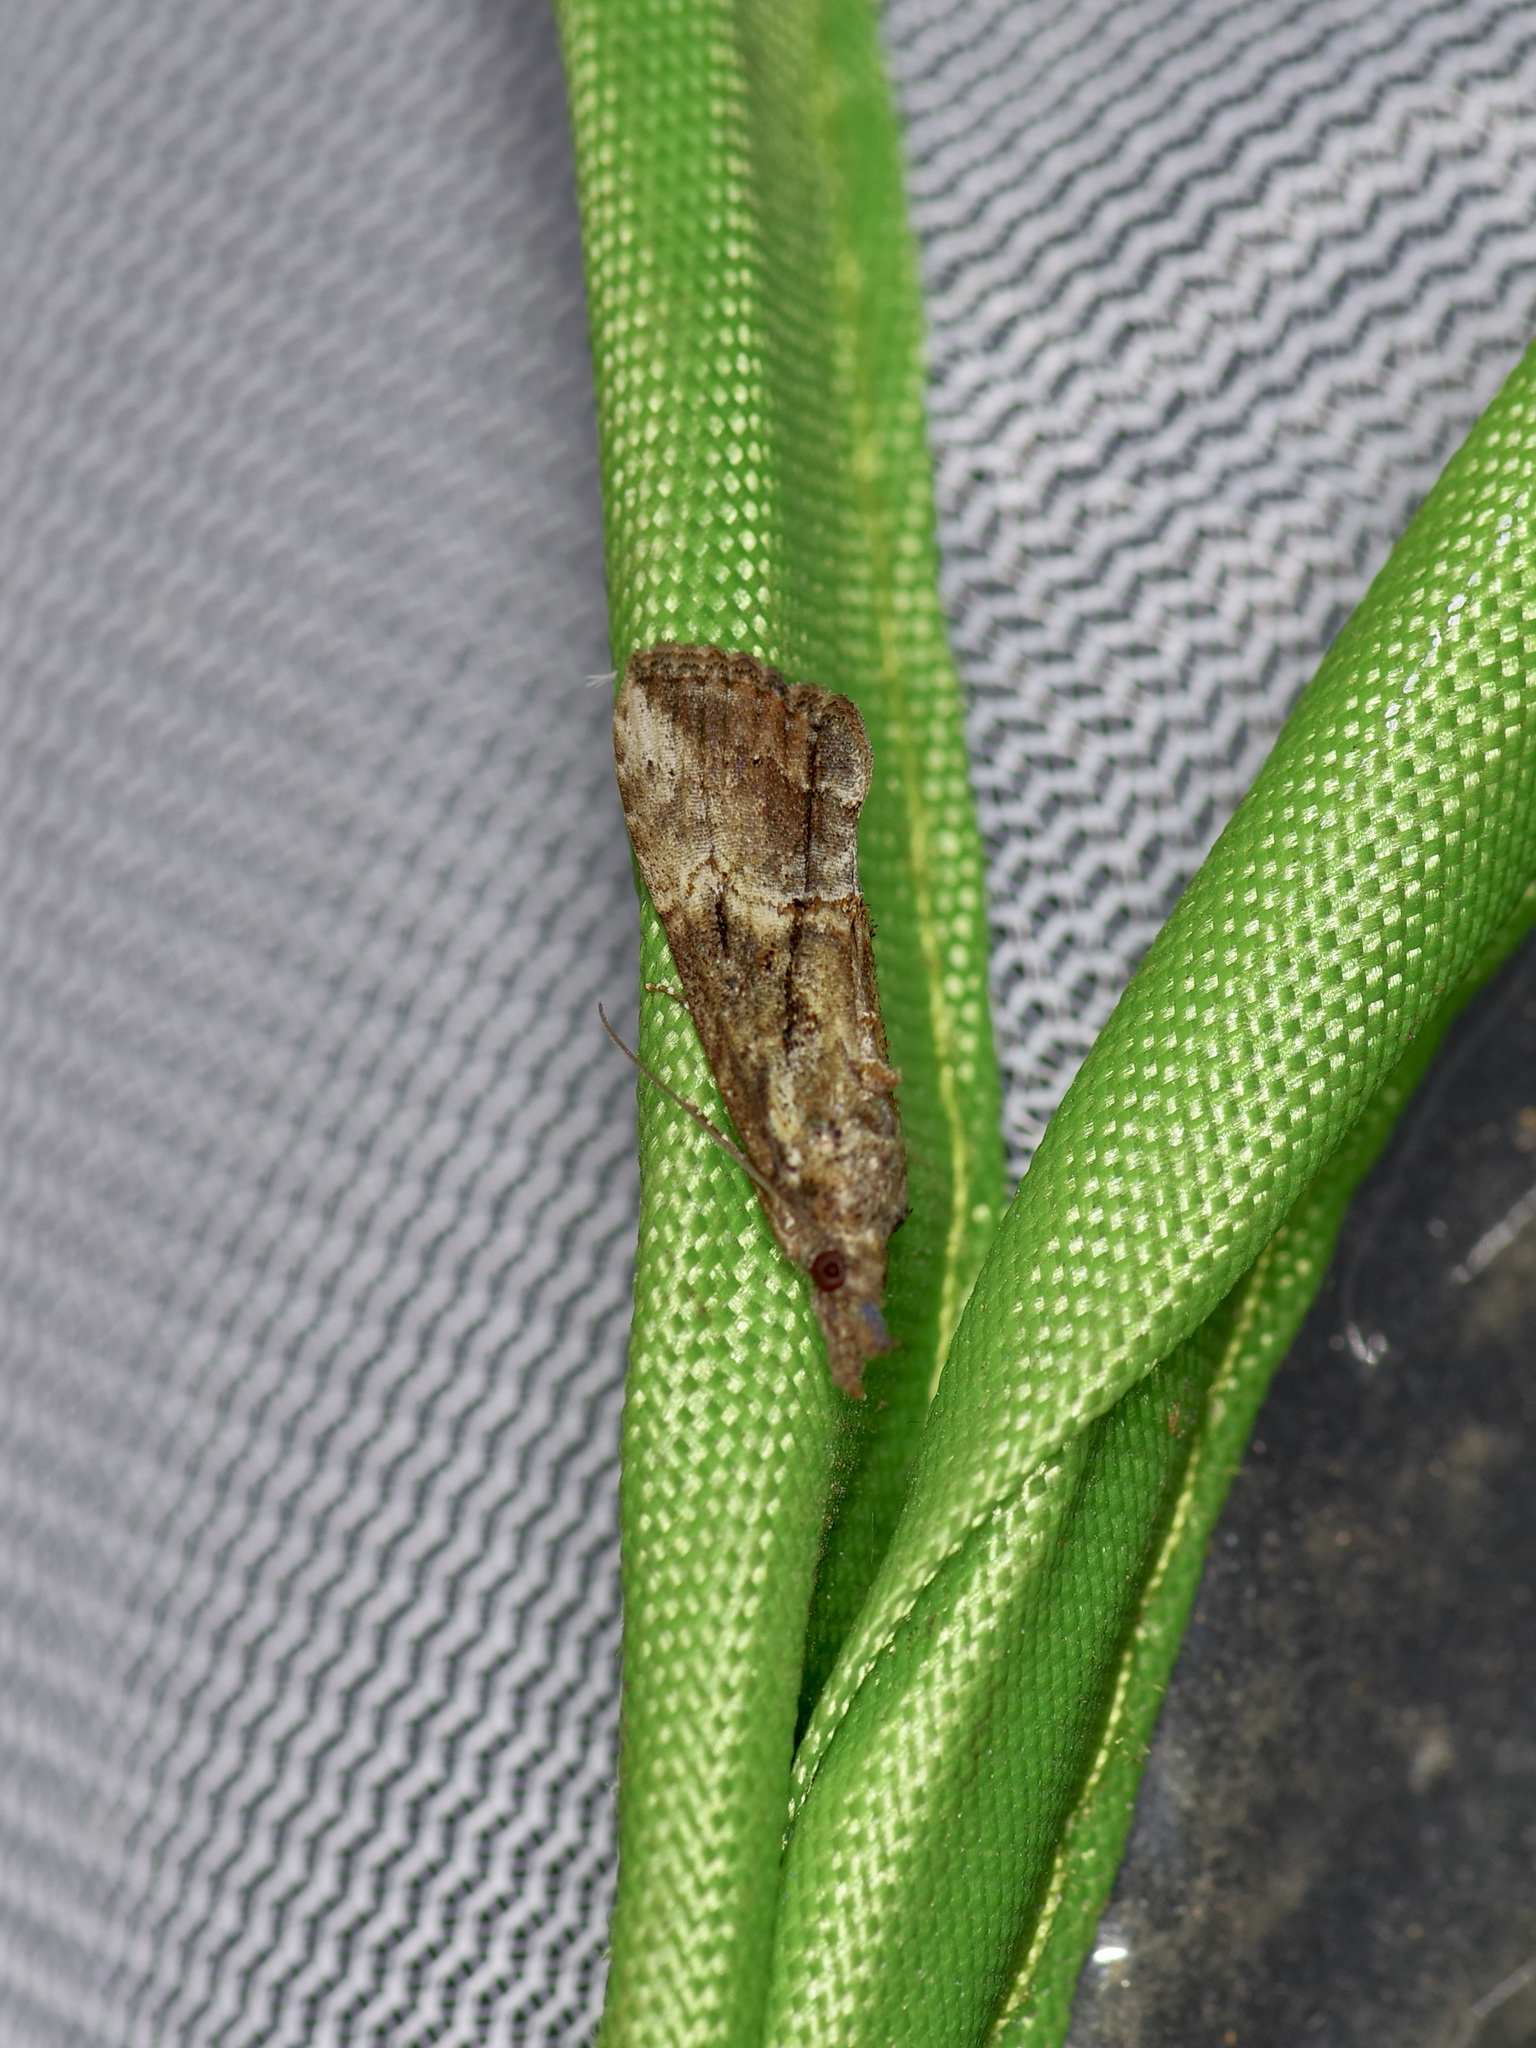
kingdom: Animalia
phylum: Arthropoda
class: Insecta
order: Lepidoptera
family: Erebidae
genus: Hypena
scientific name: Hypena scabra
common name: Green cloverworm
